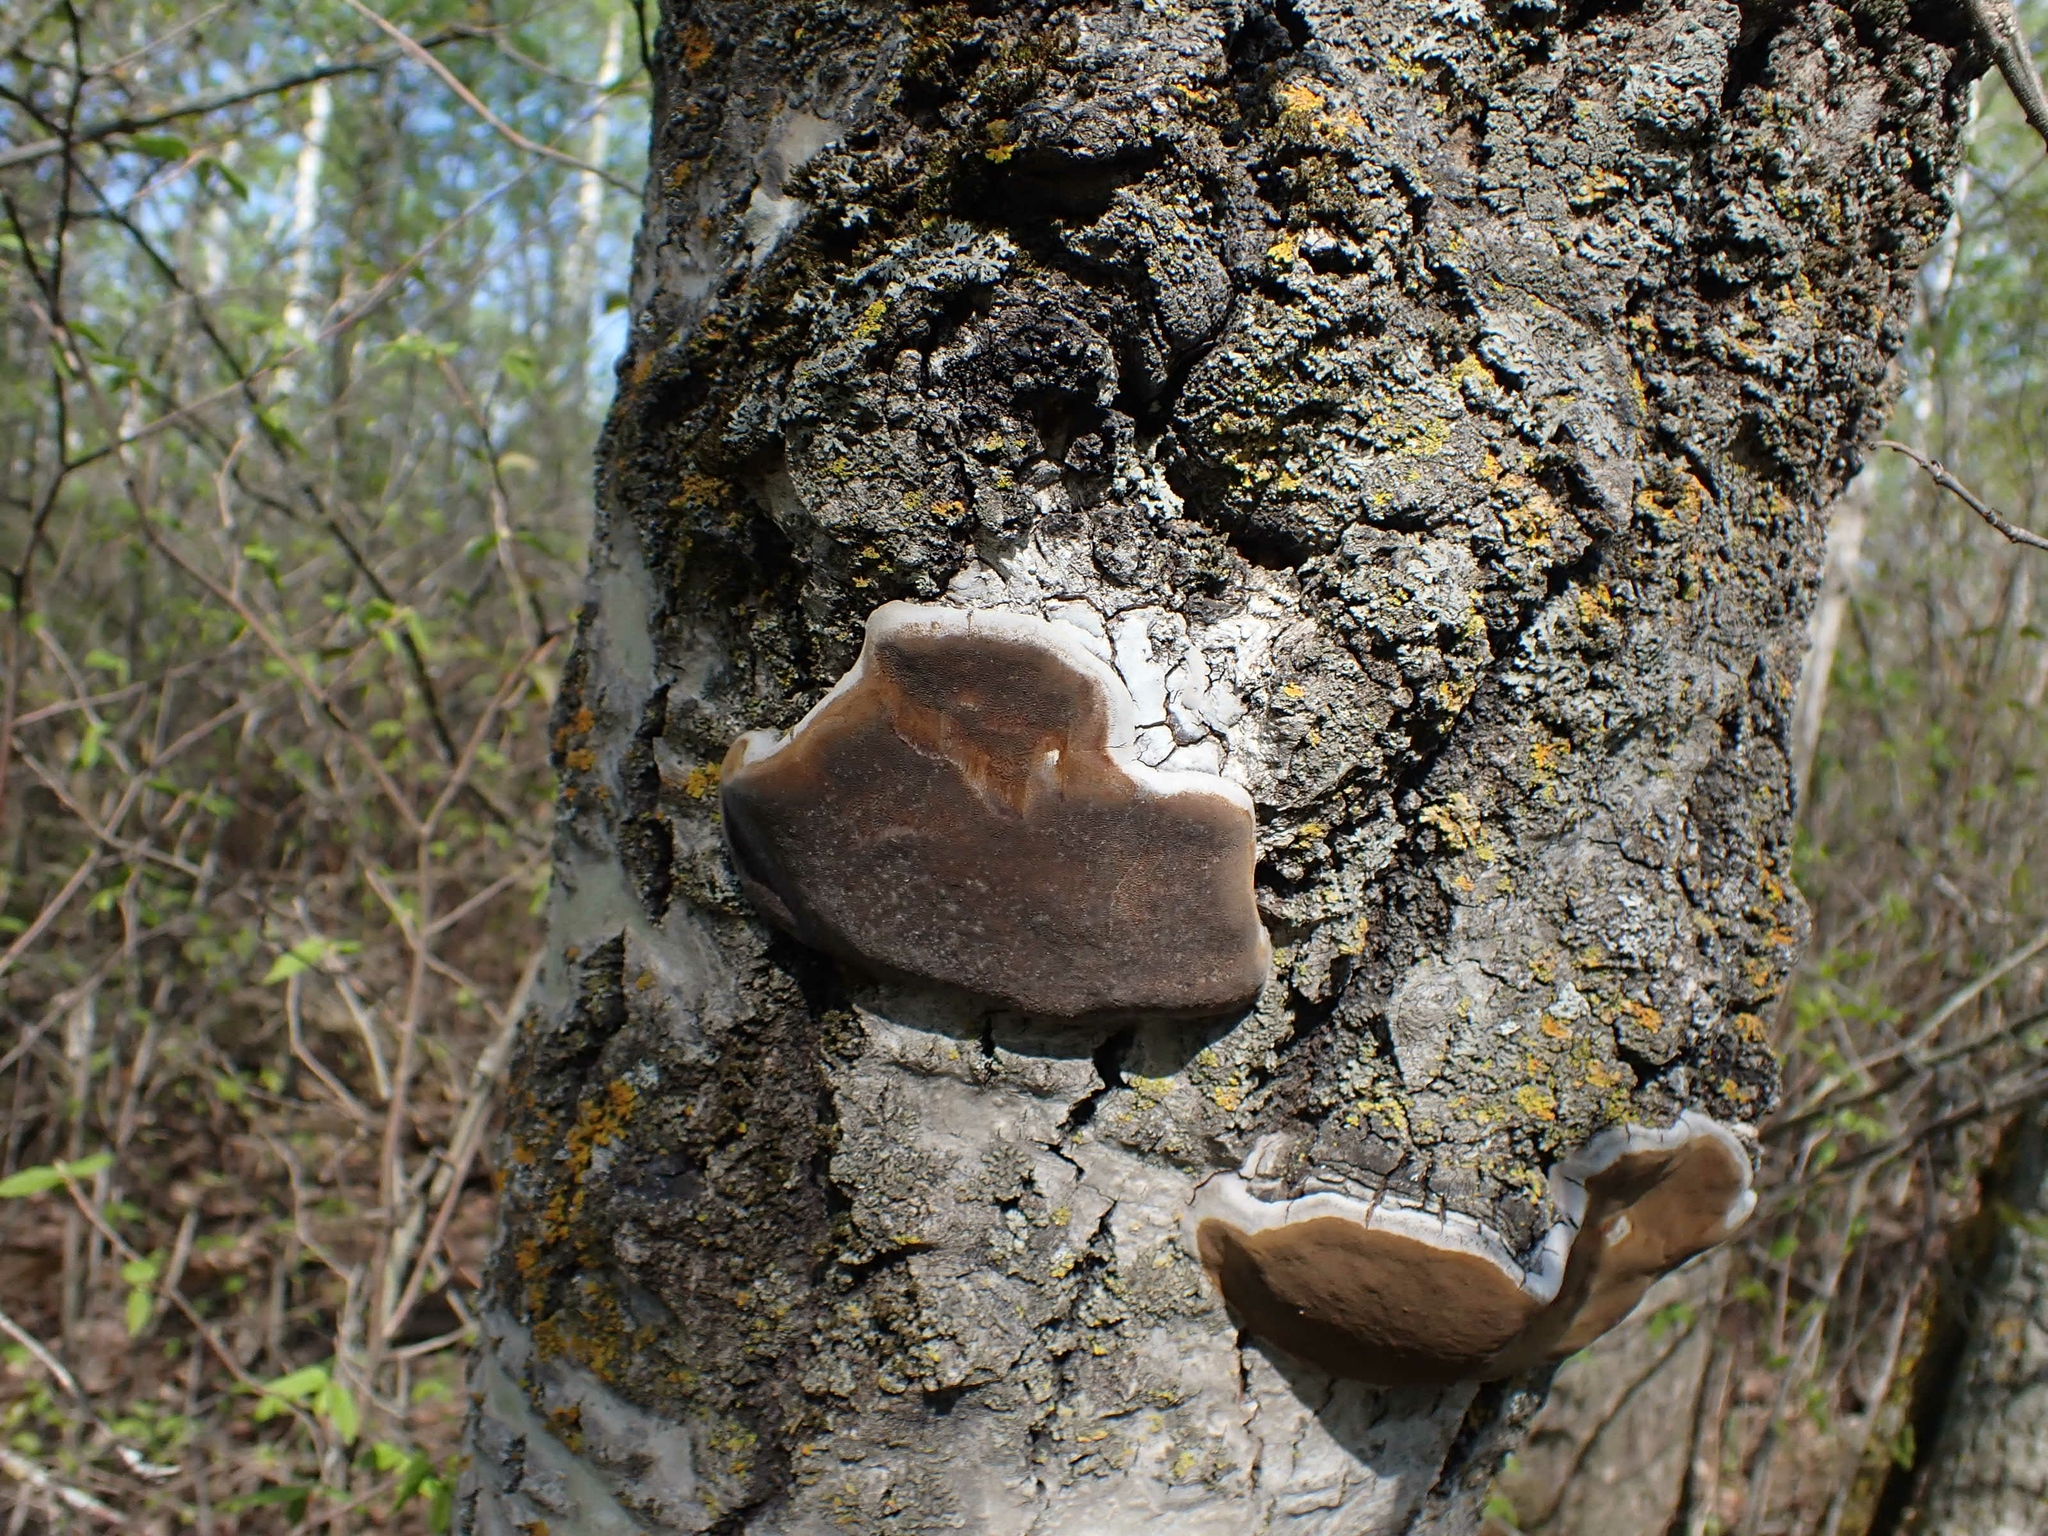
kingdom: Fungi
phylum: Basidiomycota
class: Agaricomycetes
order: Hymenochaetales
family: Hymenochaetaceae
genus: Phellinus
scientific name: Phellinus tremulae
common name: Aspen bracket
